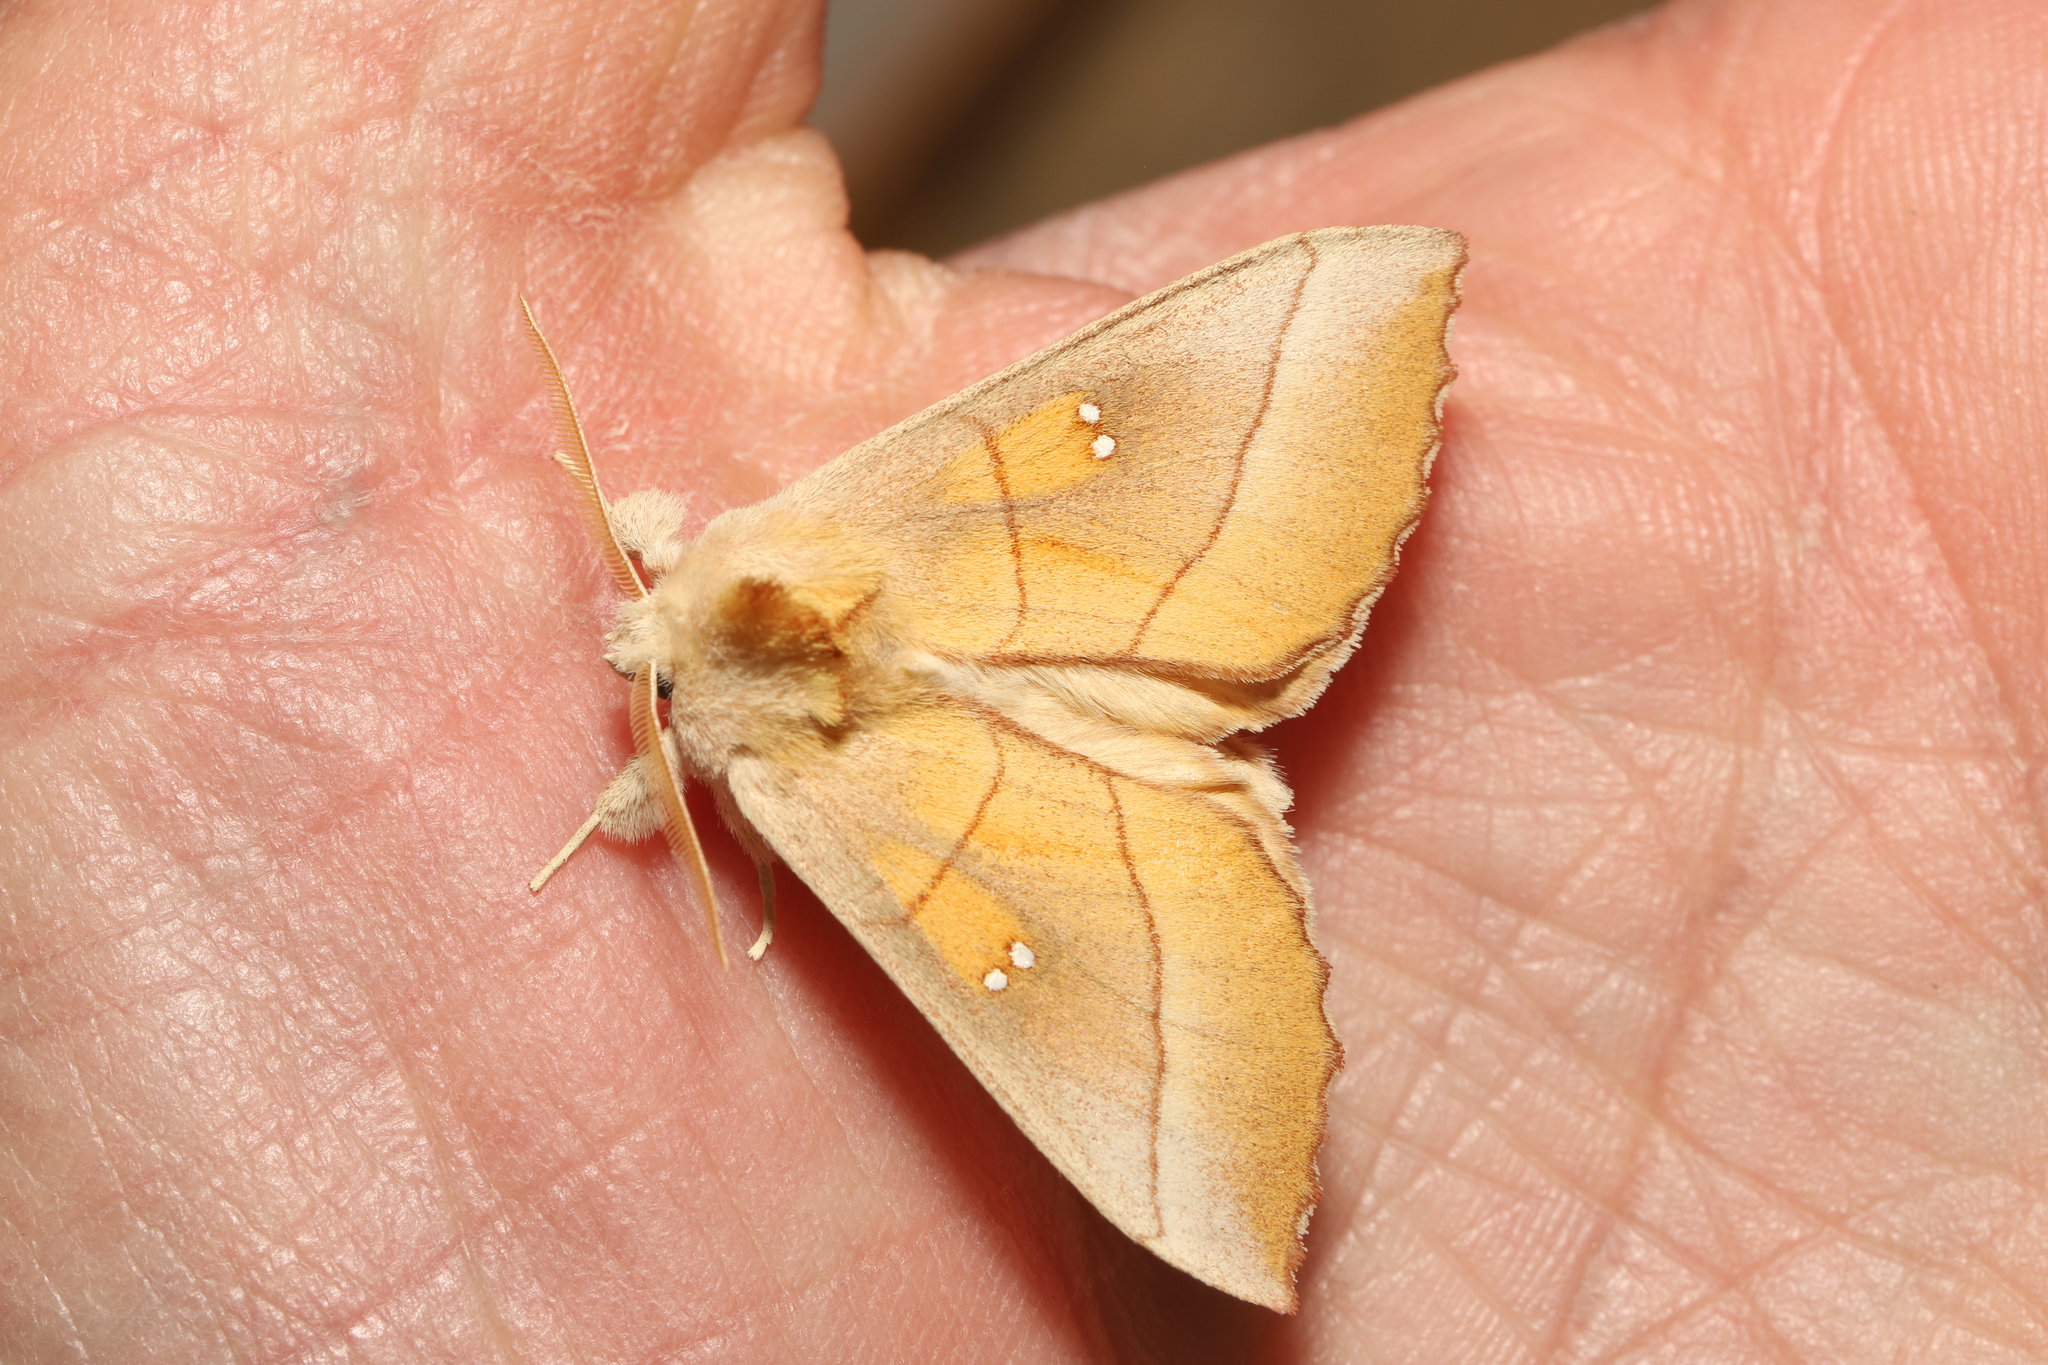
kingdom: Animalia
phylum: Arthropoda
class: Insecta
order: Lepidoptera
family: Notodontidae
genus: Nadata
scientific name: Nadata gibbosa
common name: White-dotted prominent
